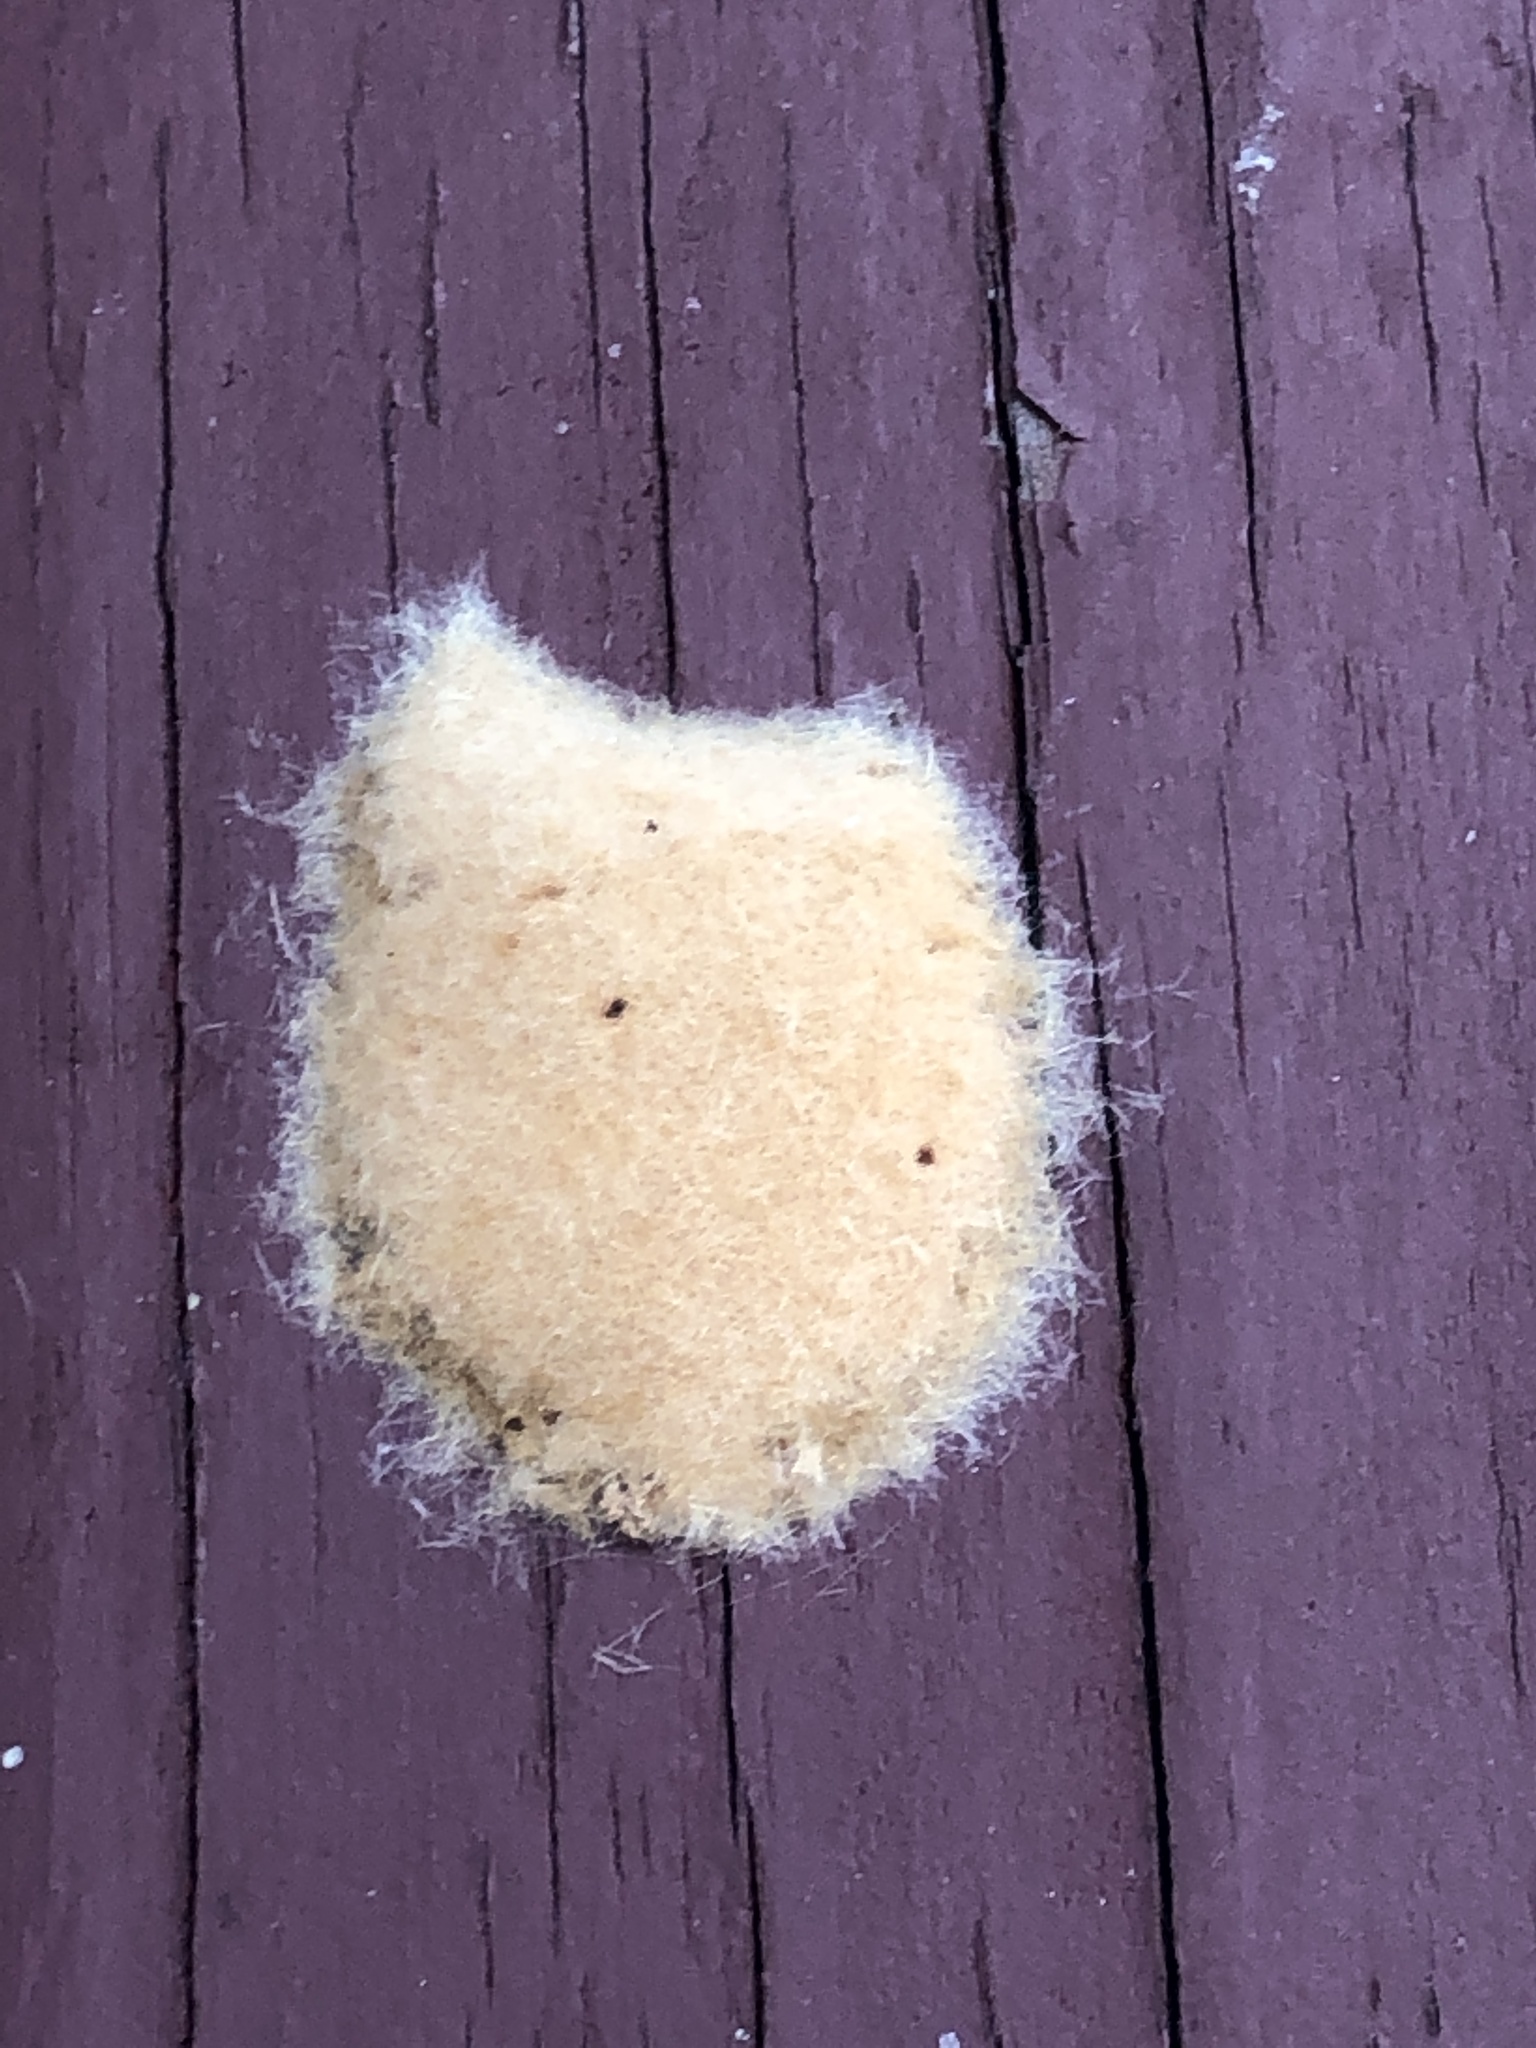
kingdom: Animalia
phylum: Arthropoda
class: Insecta
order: Lepidoptera
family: Erebidae
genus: Lymantria
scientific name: Lymantria dispar
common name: Gypsy moth
